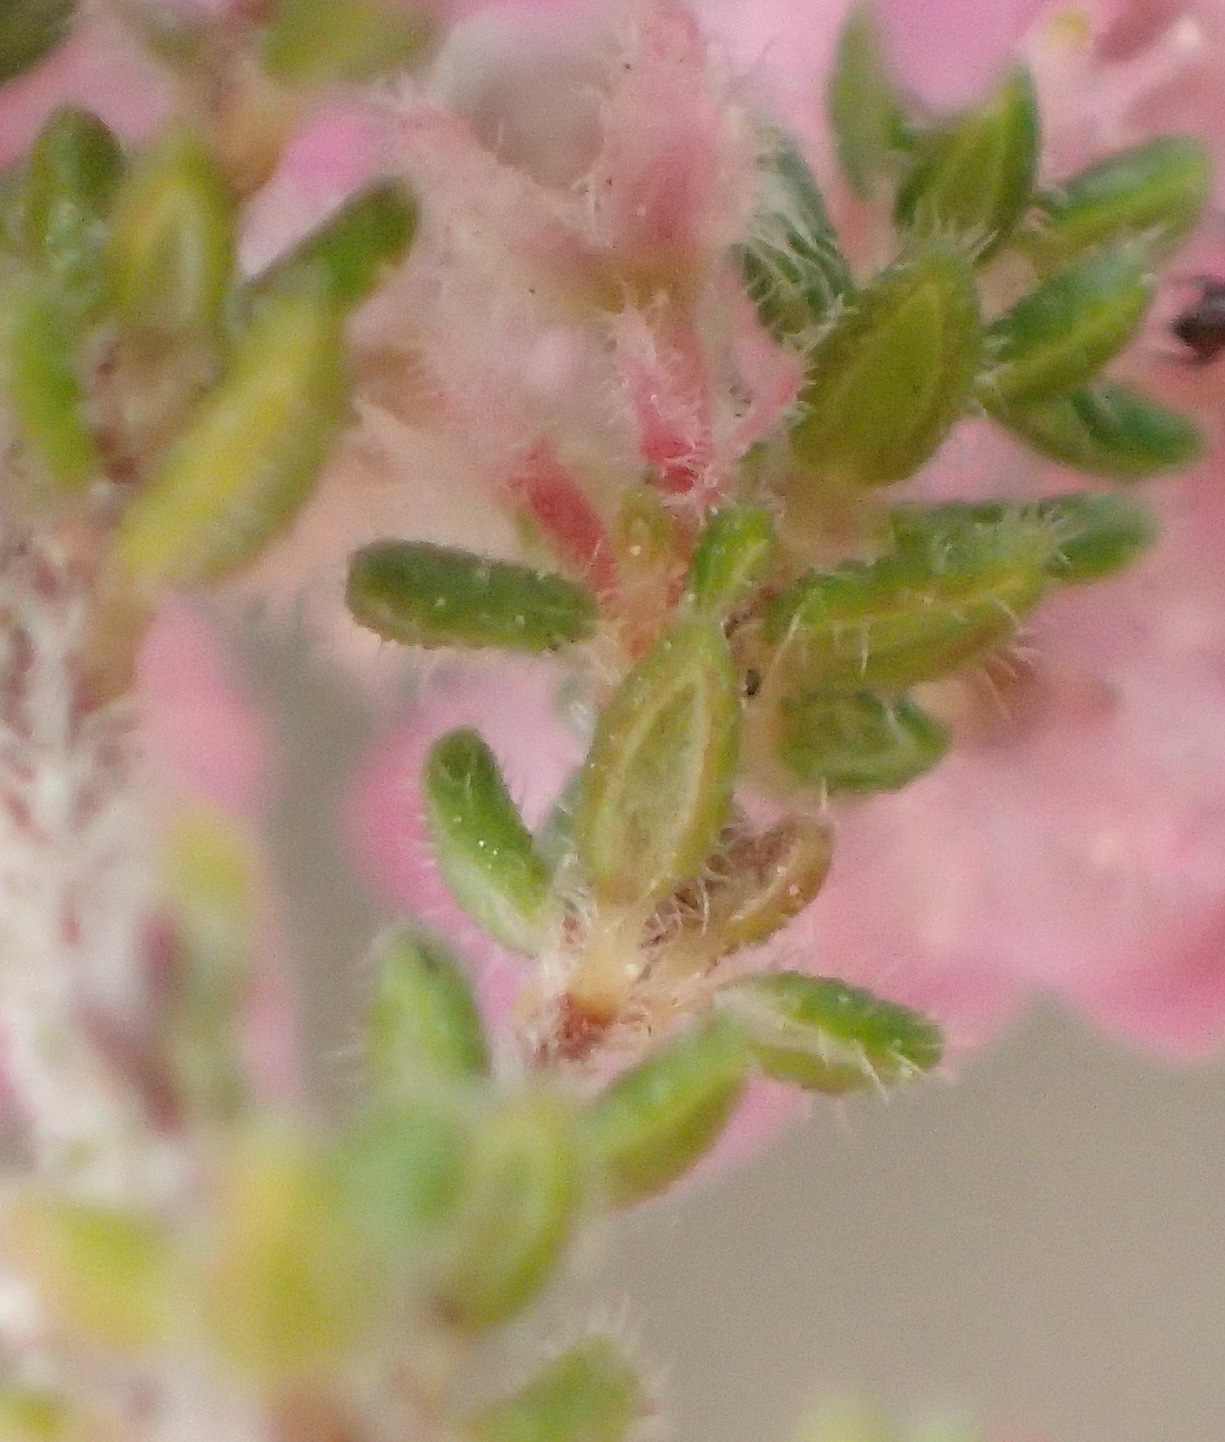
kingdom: Plantae
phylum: Tracheophyta
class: Magnoliopsida
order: Ericales
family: Ericaceae
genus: Erica
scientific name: Erica onusta
